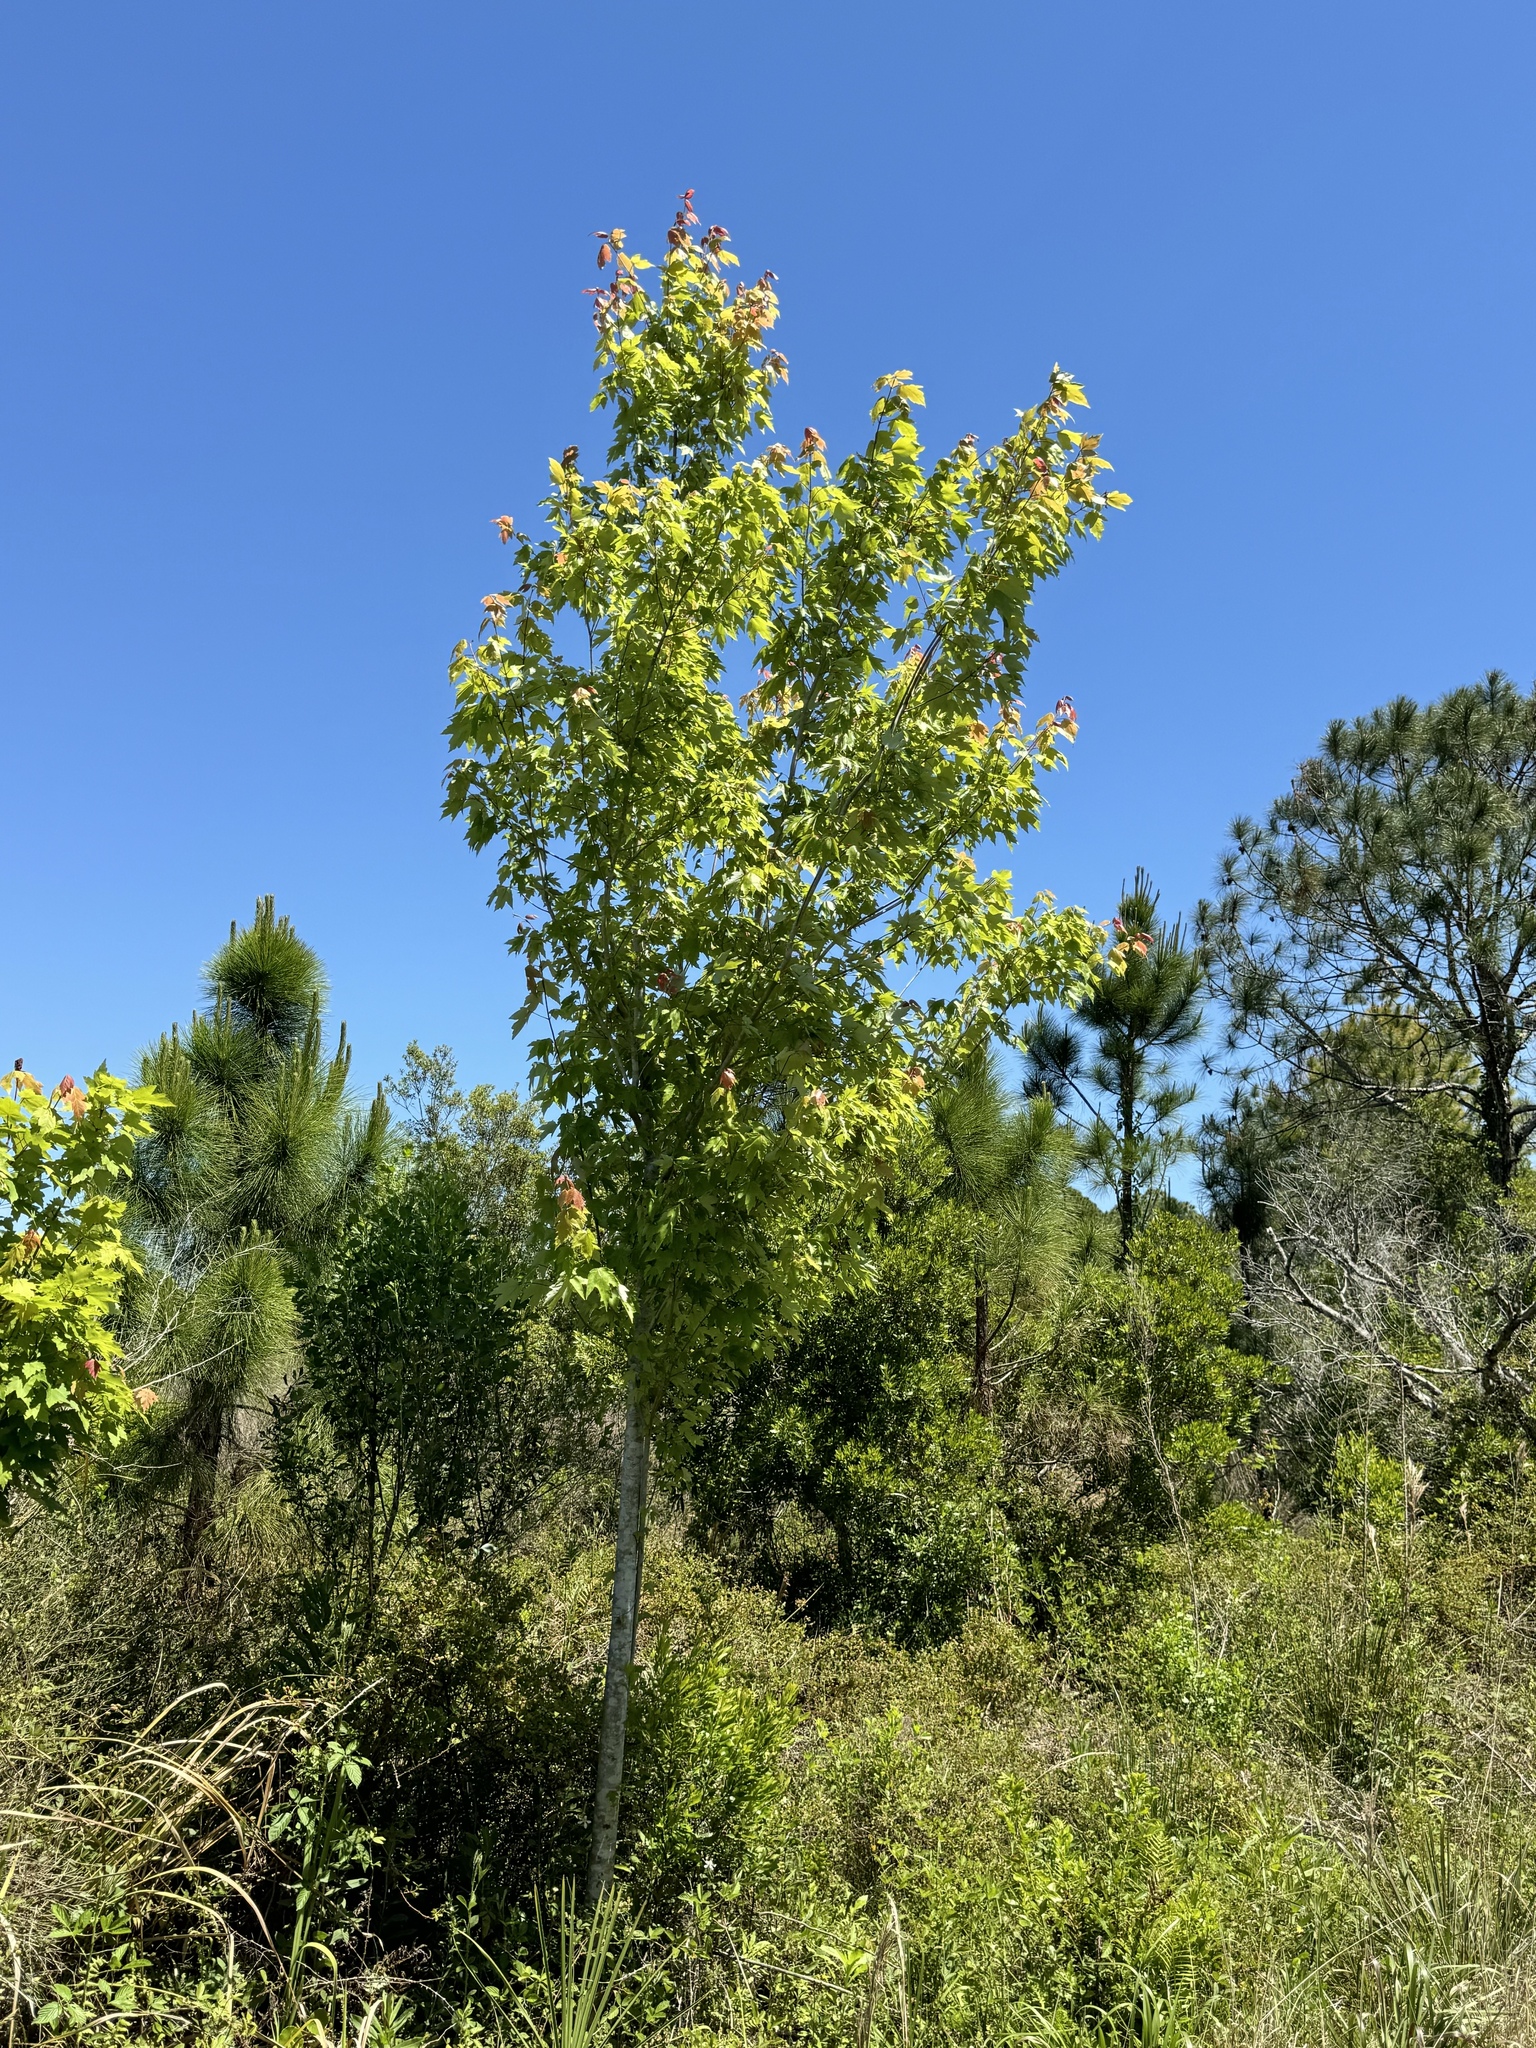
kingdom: Plantae
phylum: Tracheophyta
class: Magnoliopsida
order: Sapindales
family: Sapindaceae
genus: Acer
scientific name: Acer rubrum
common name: Red maple
